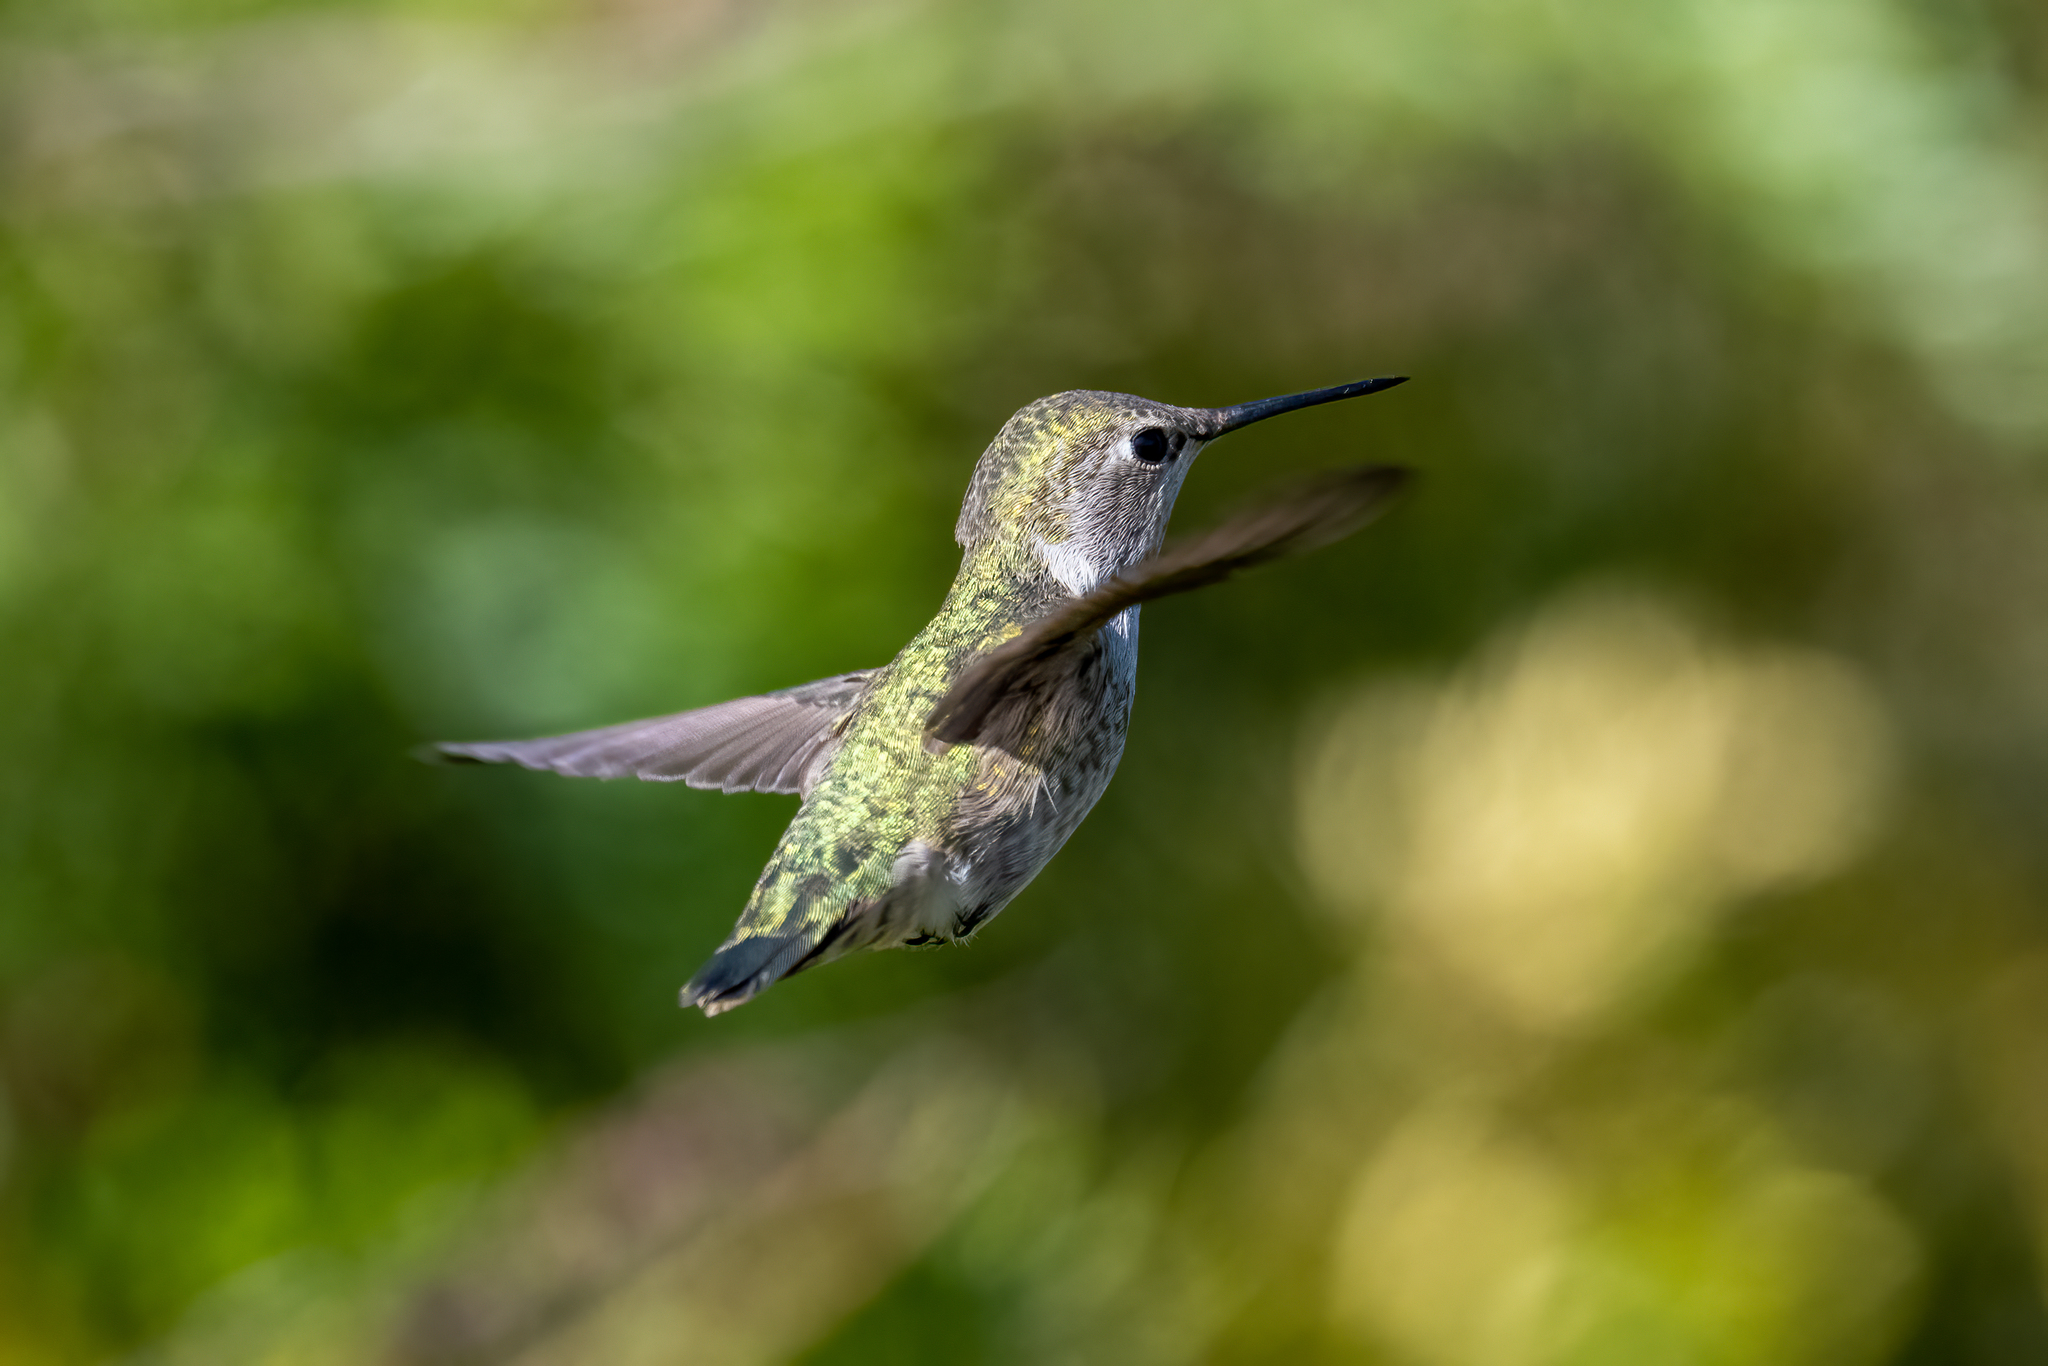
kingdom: Animalia
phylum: Chordata
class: Aves
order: Apodiformes
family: Trochilidae
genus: Calypte
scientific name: Calypte anna
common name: Anna's hummingbird
